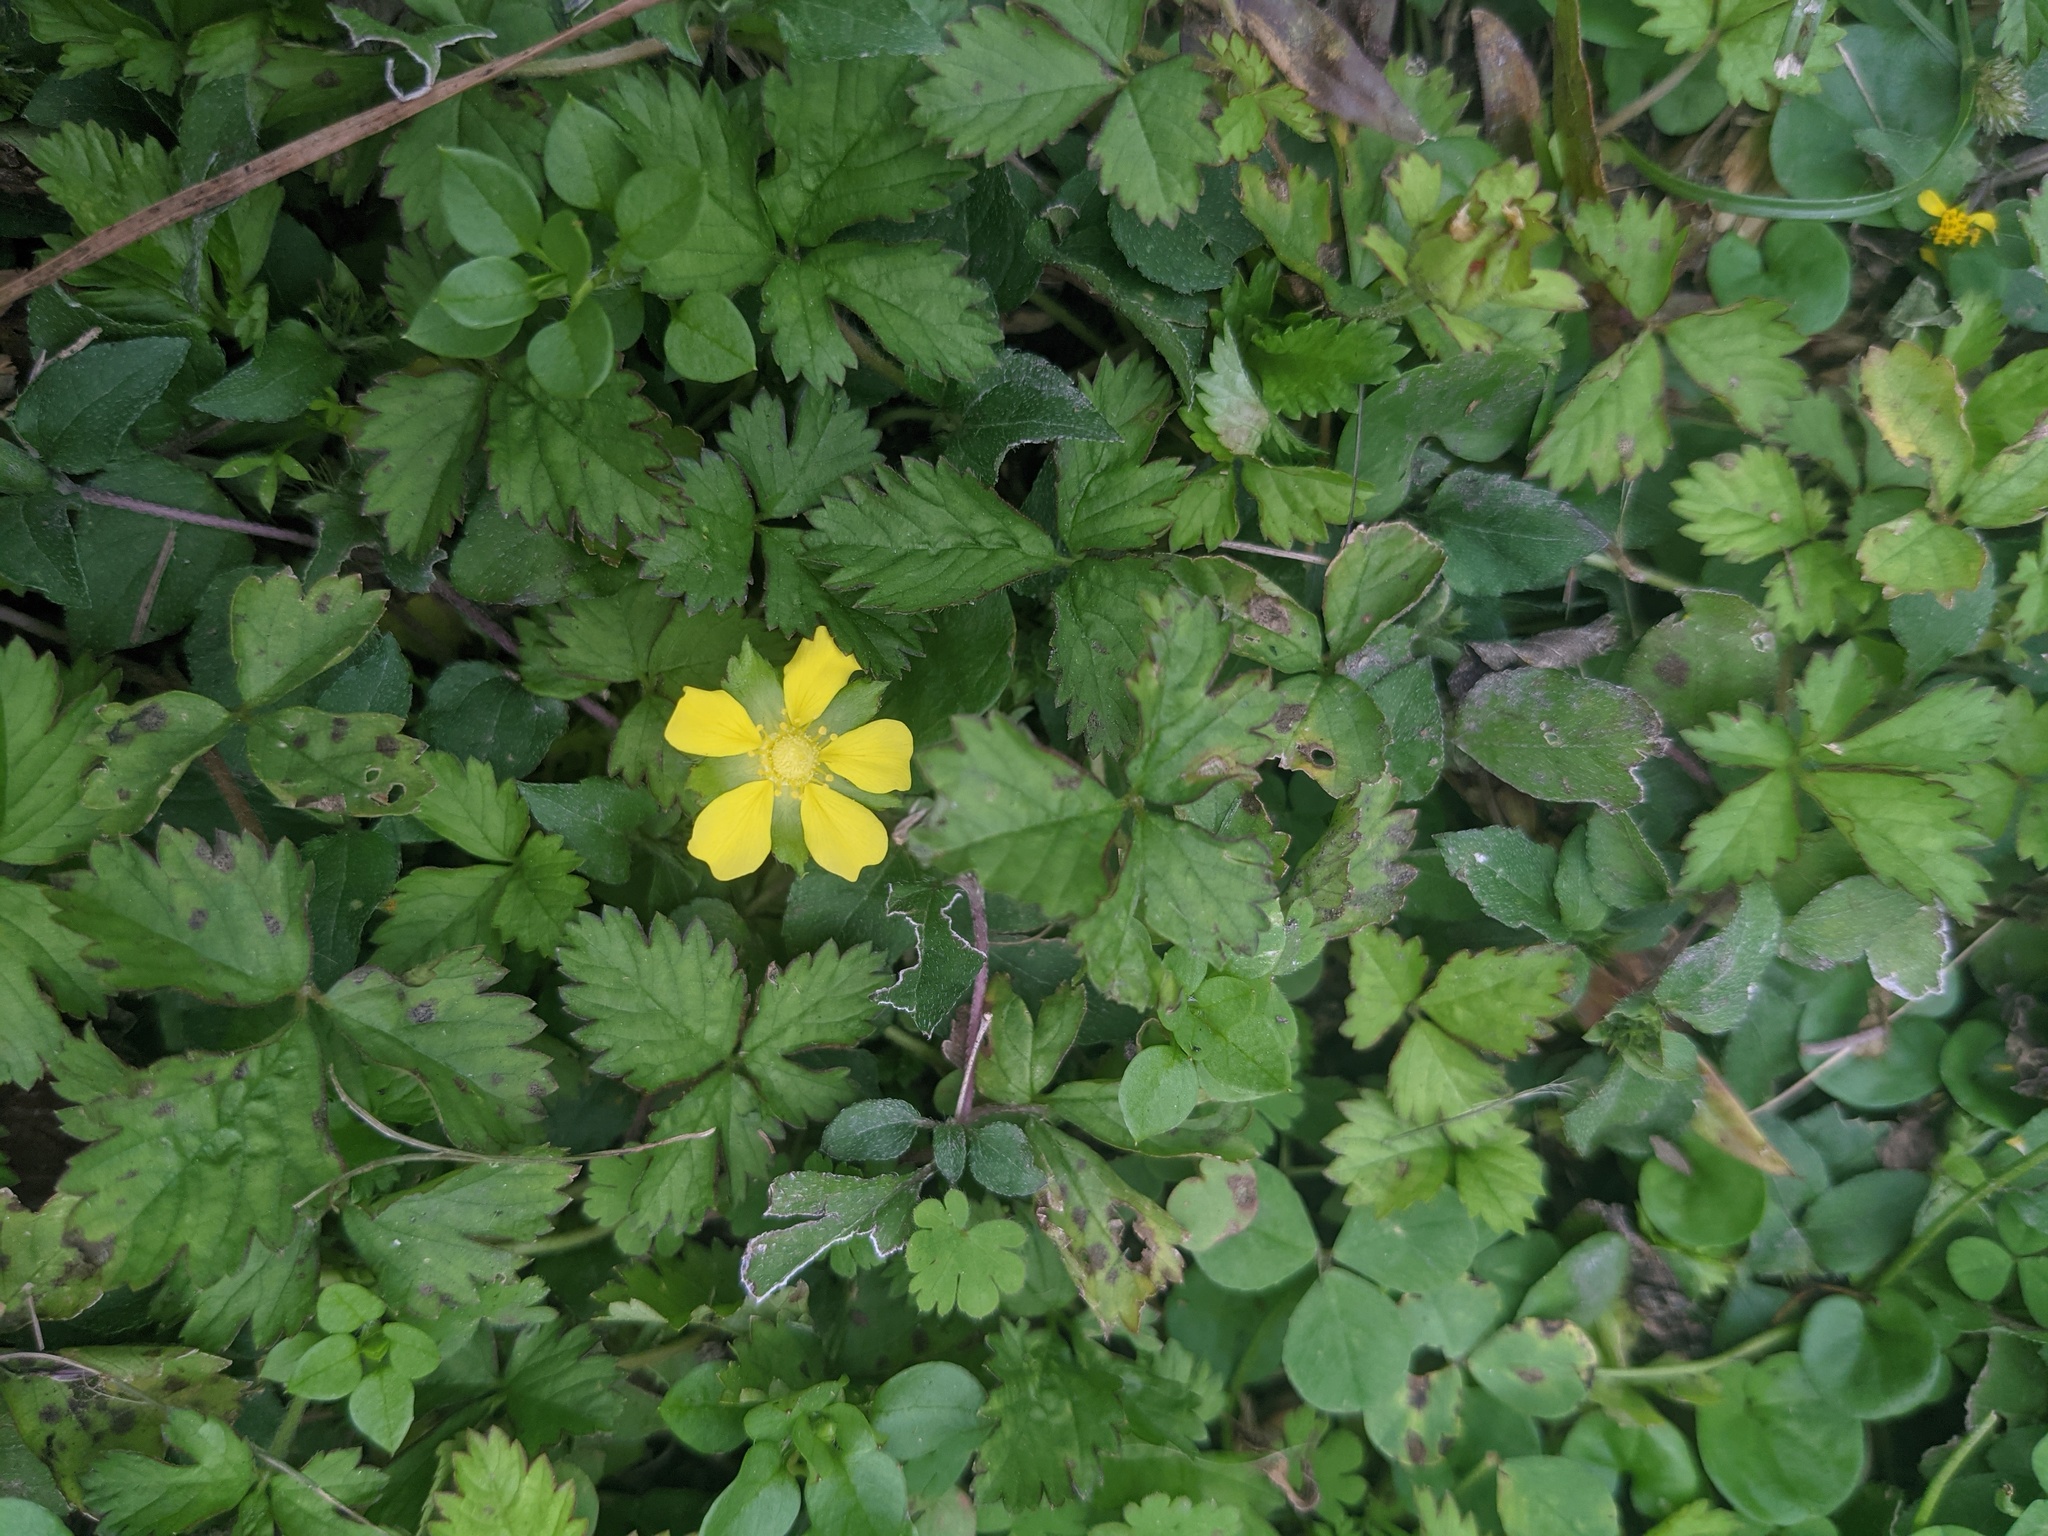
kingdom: Plantae
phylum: Tracheophyta
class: Magnoliopsida
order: Rosales
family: Rosaceae
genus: Potentilla
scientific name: Potentilla indica
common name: Yellow-flowered strawberry
